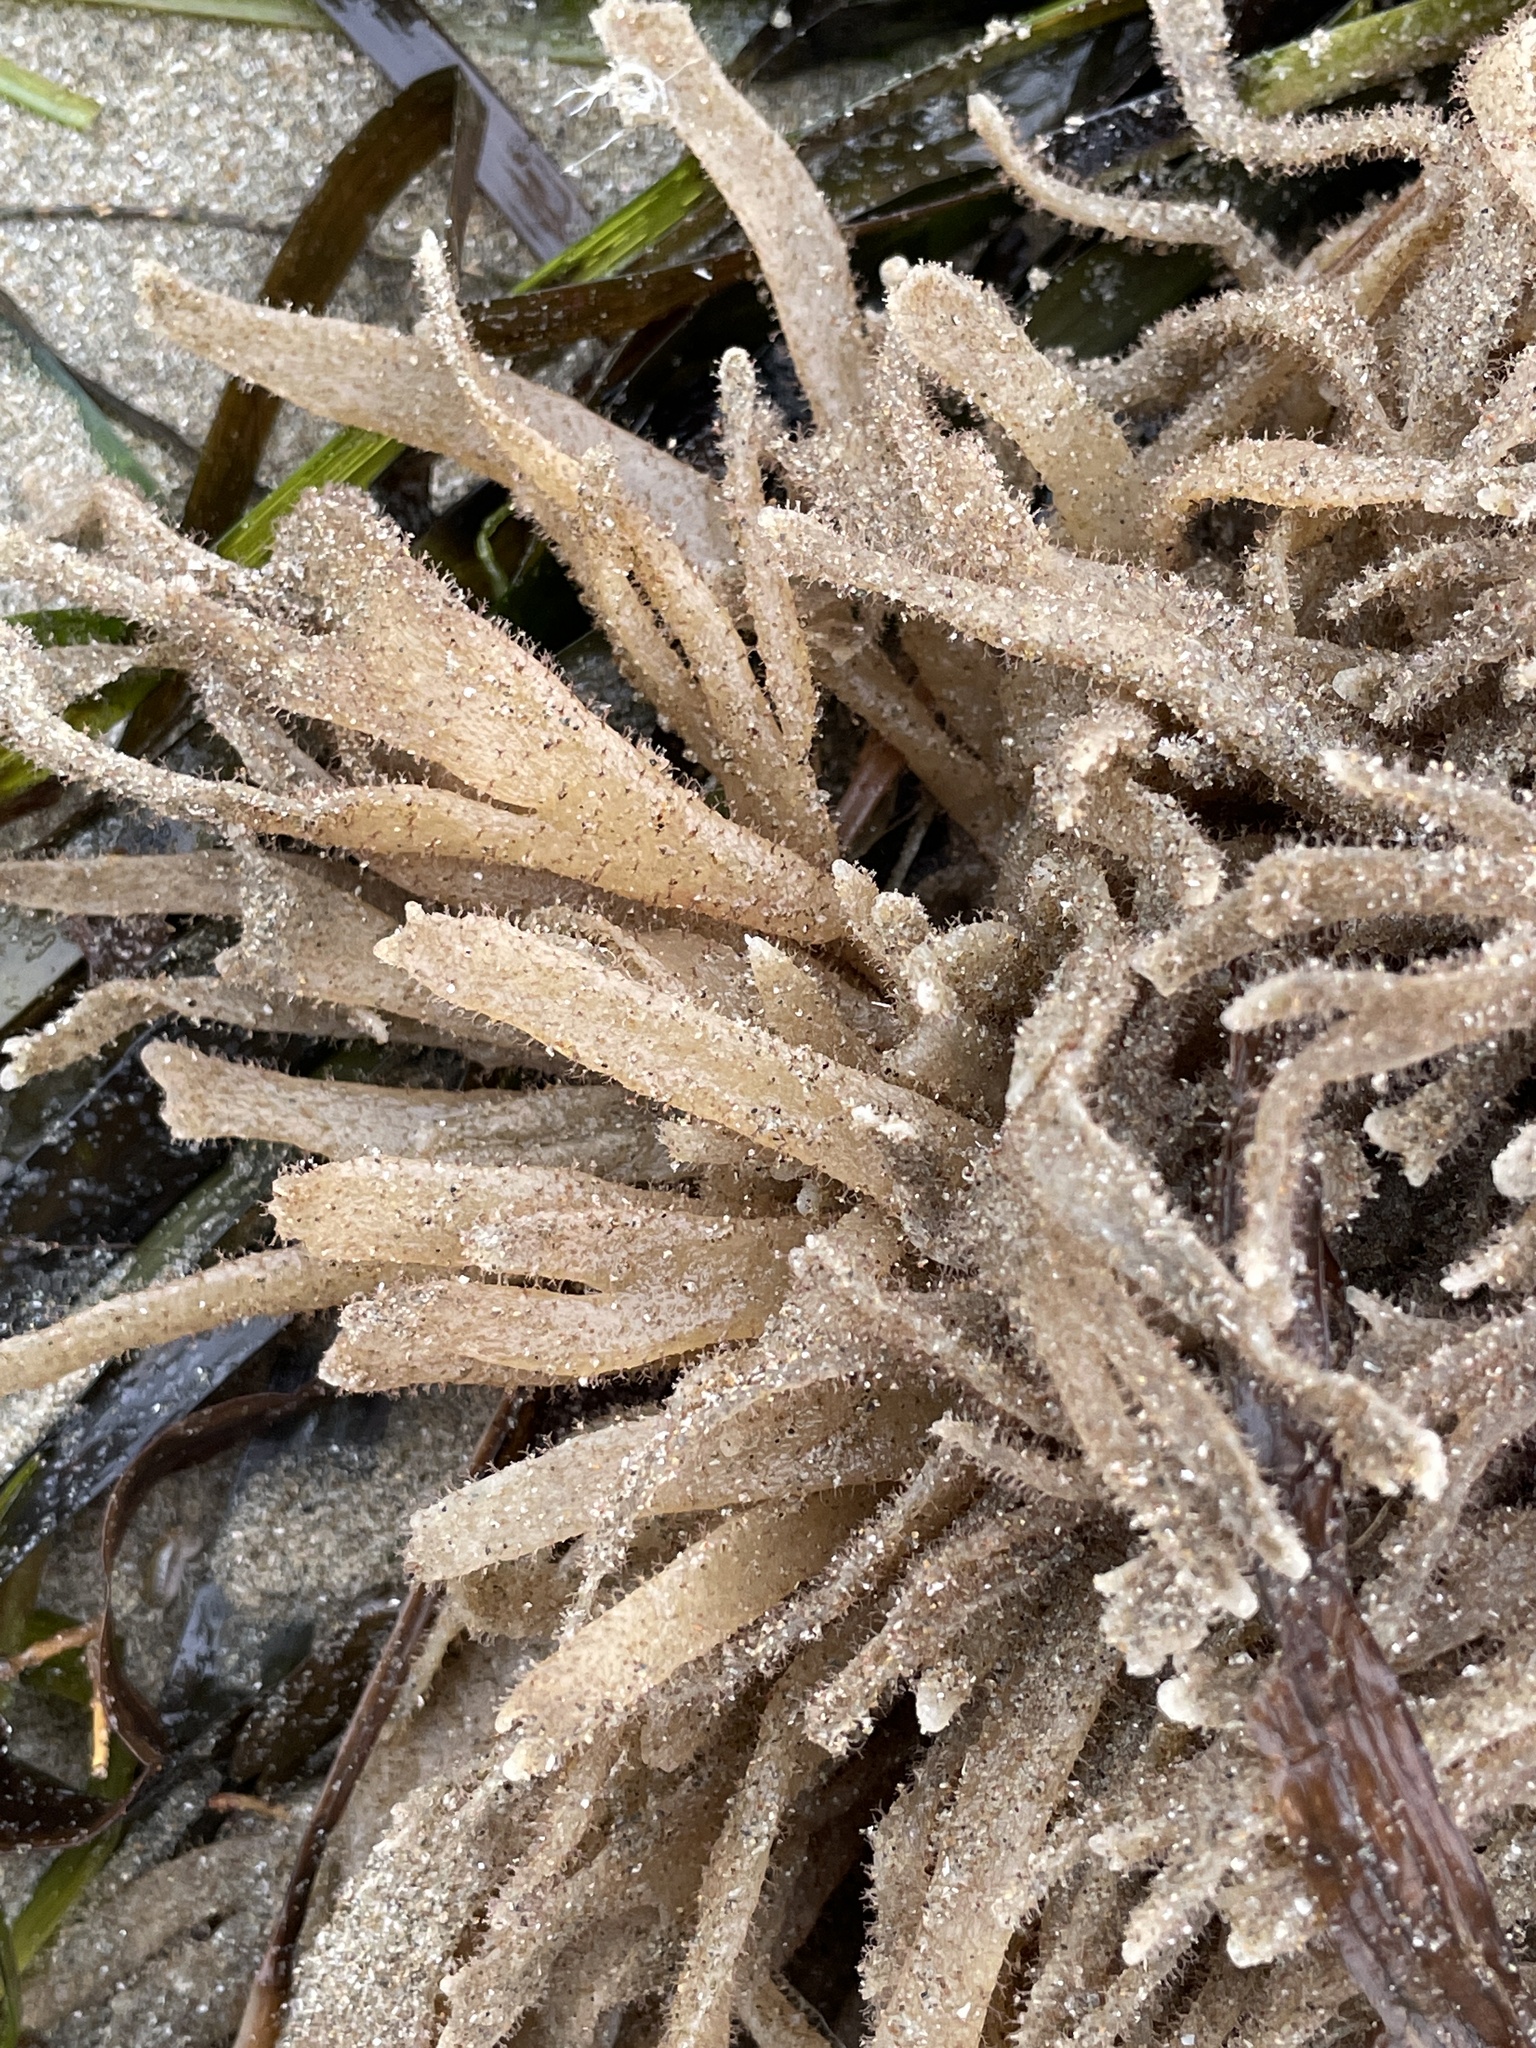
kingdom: Animalia
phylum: Bryozoa
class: Gymnolaemata
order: Ctenostomatida
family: Flustrellidridae
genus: Flustrellidra
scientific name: Flustrellidra corniculata
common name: Spiny leather bryozoan
